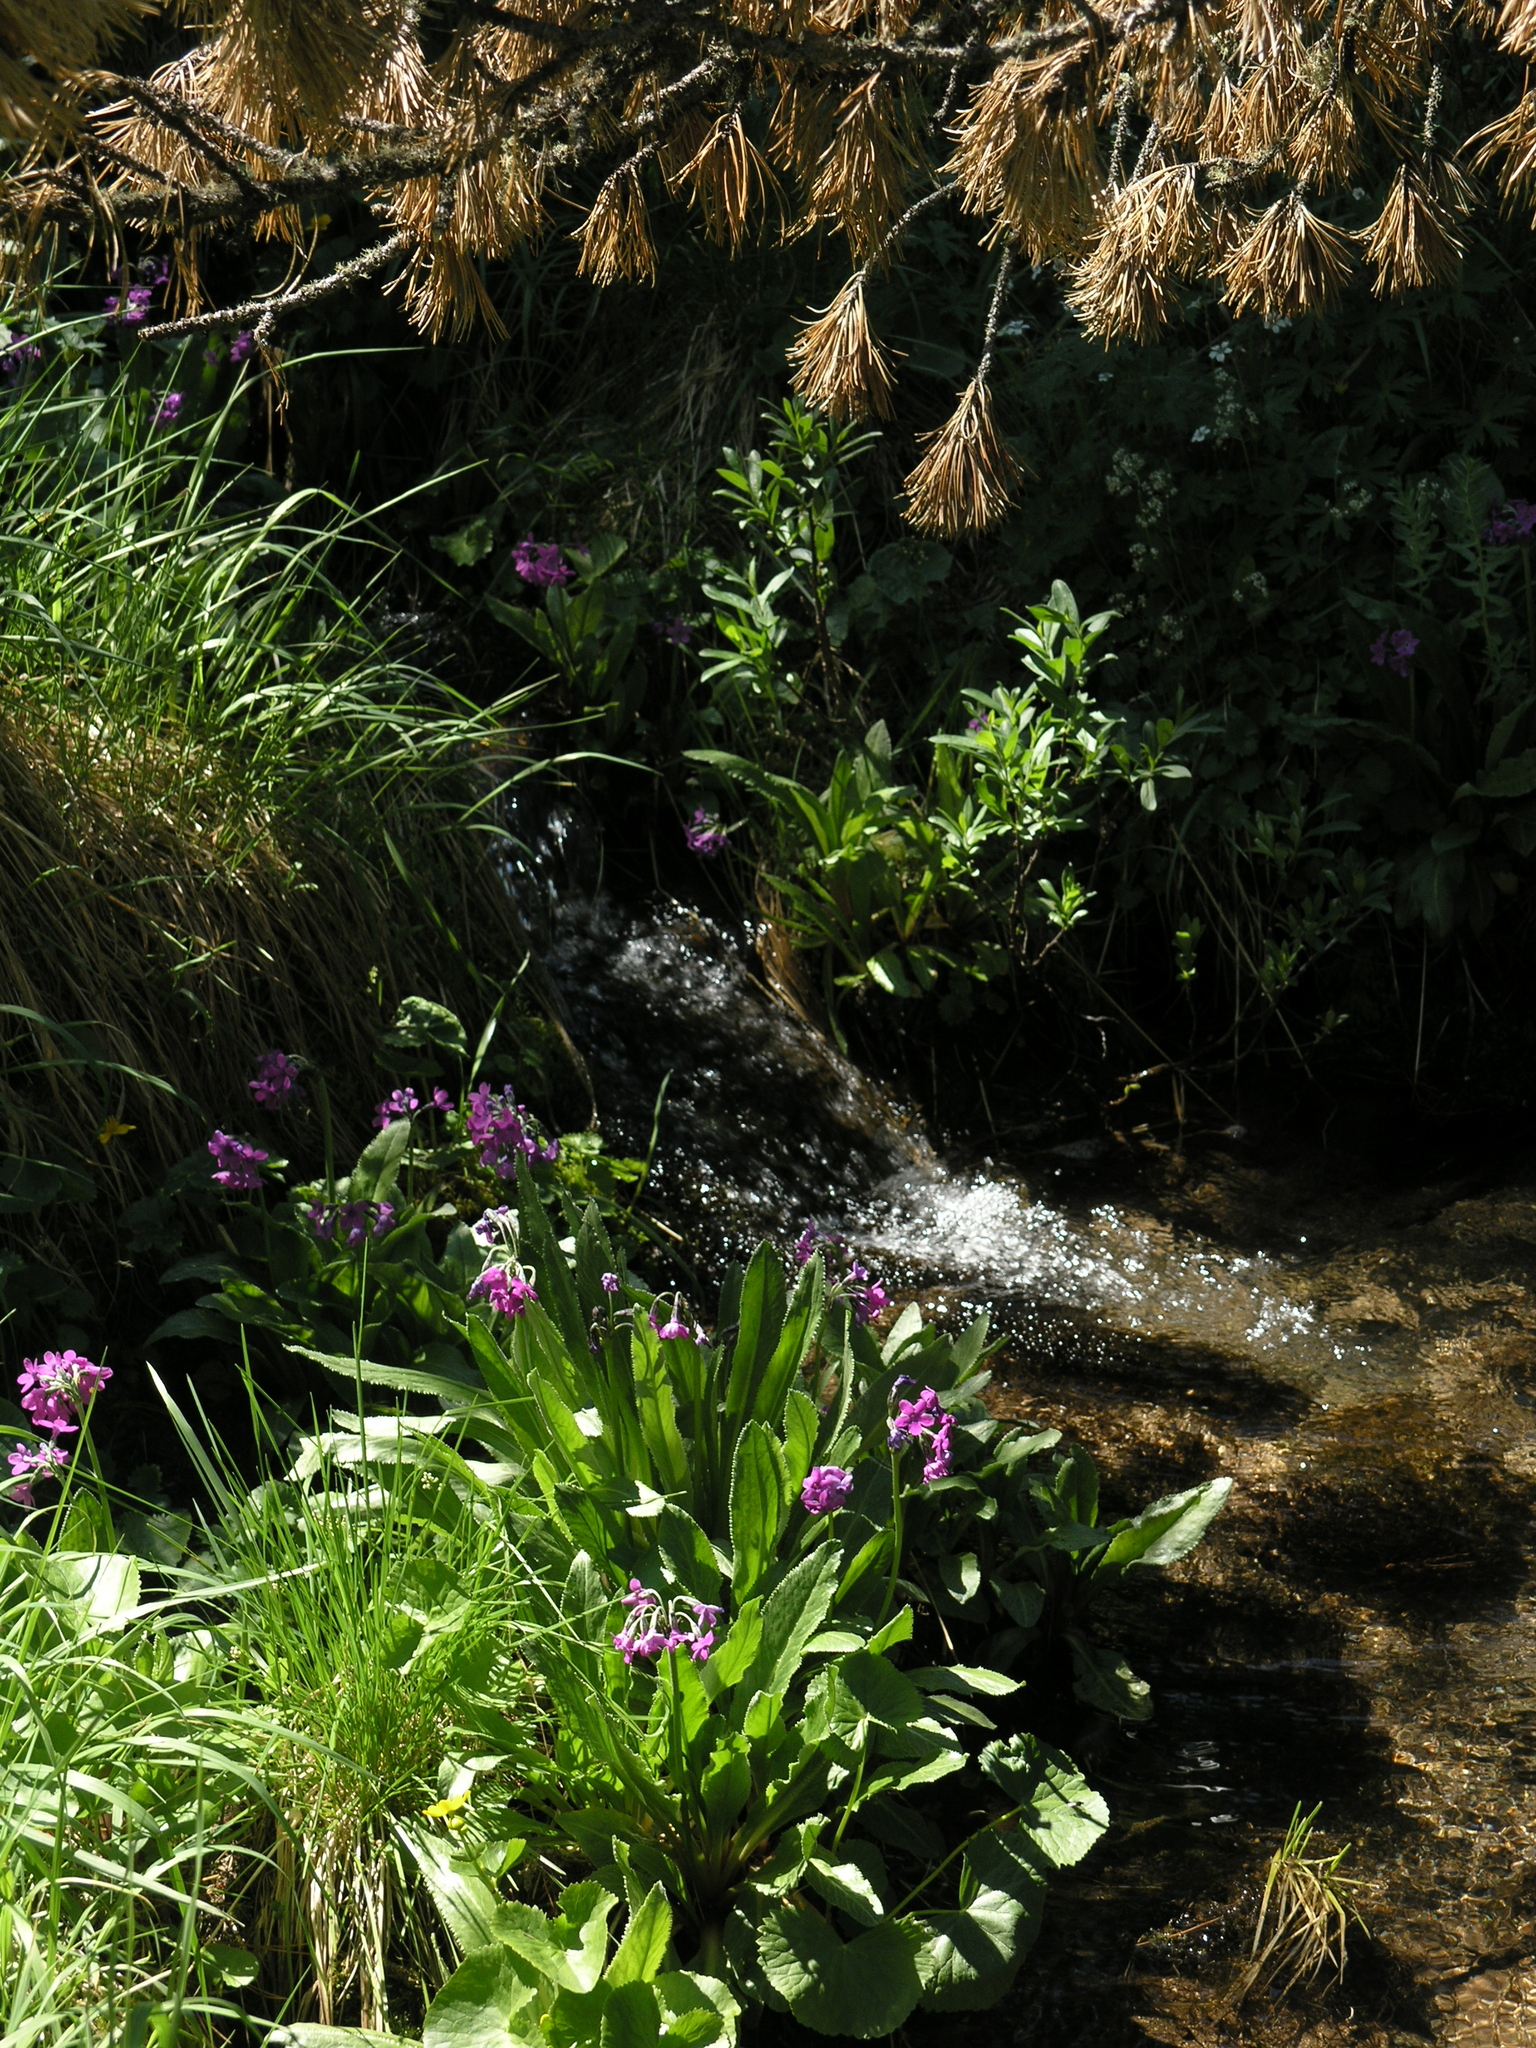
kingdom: Plantae
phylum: Tracheophyta
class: Magnoliopsida
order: Ericales
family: Primulaceae
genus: Primula
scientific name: Primula nivalis
